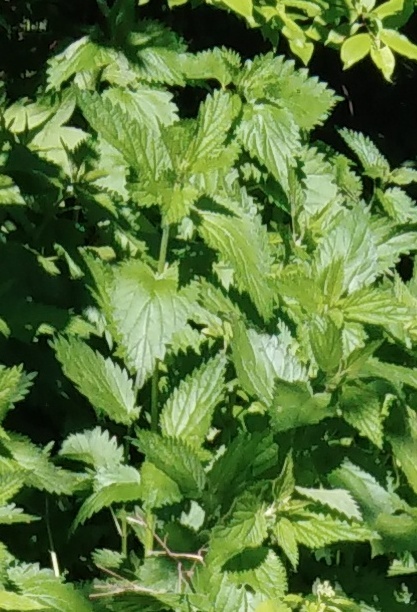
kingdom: Plantae
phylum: Tracheophyta
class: Magnoliopsida
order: Rosales
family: Urticaceae
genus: Urtica
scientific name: Urtica dioica
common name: Common nettle
